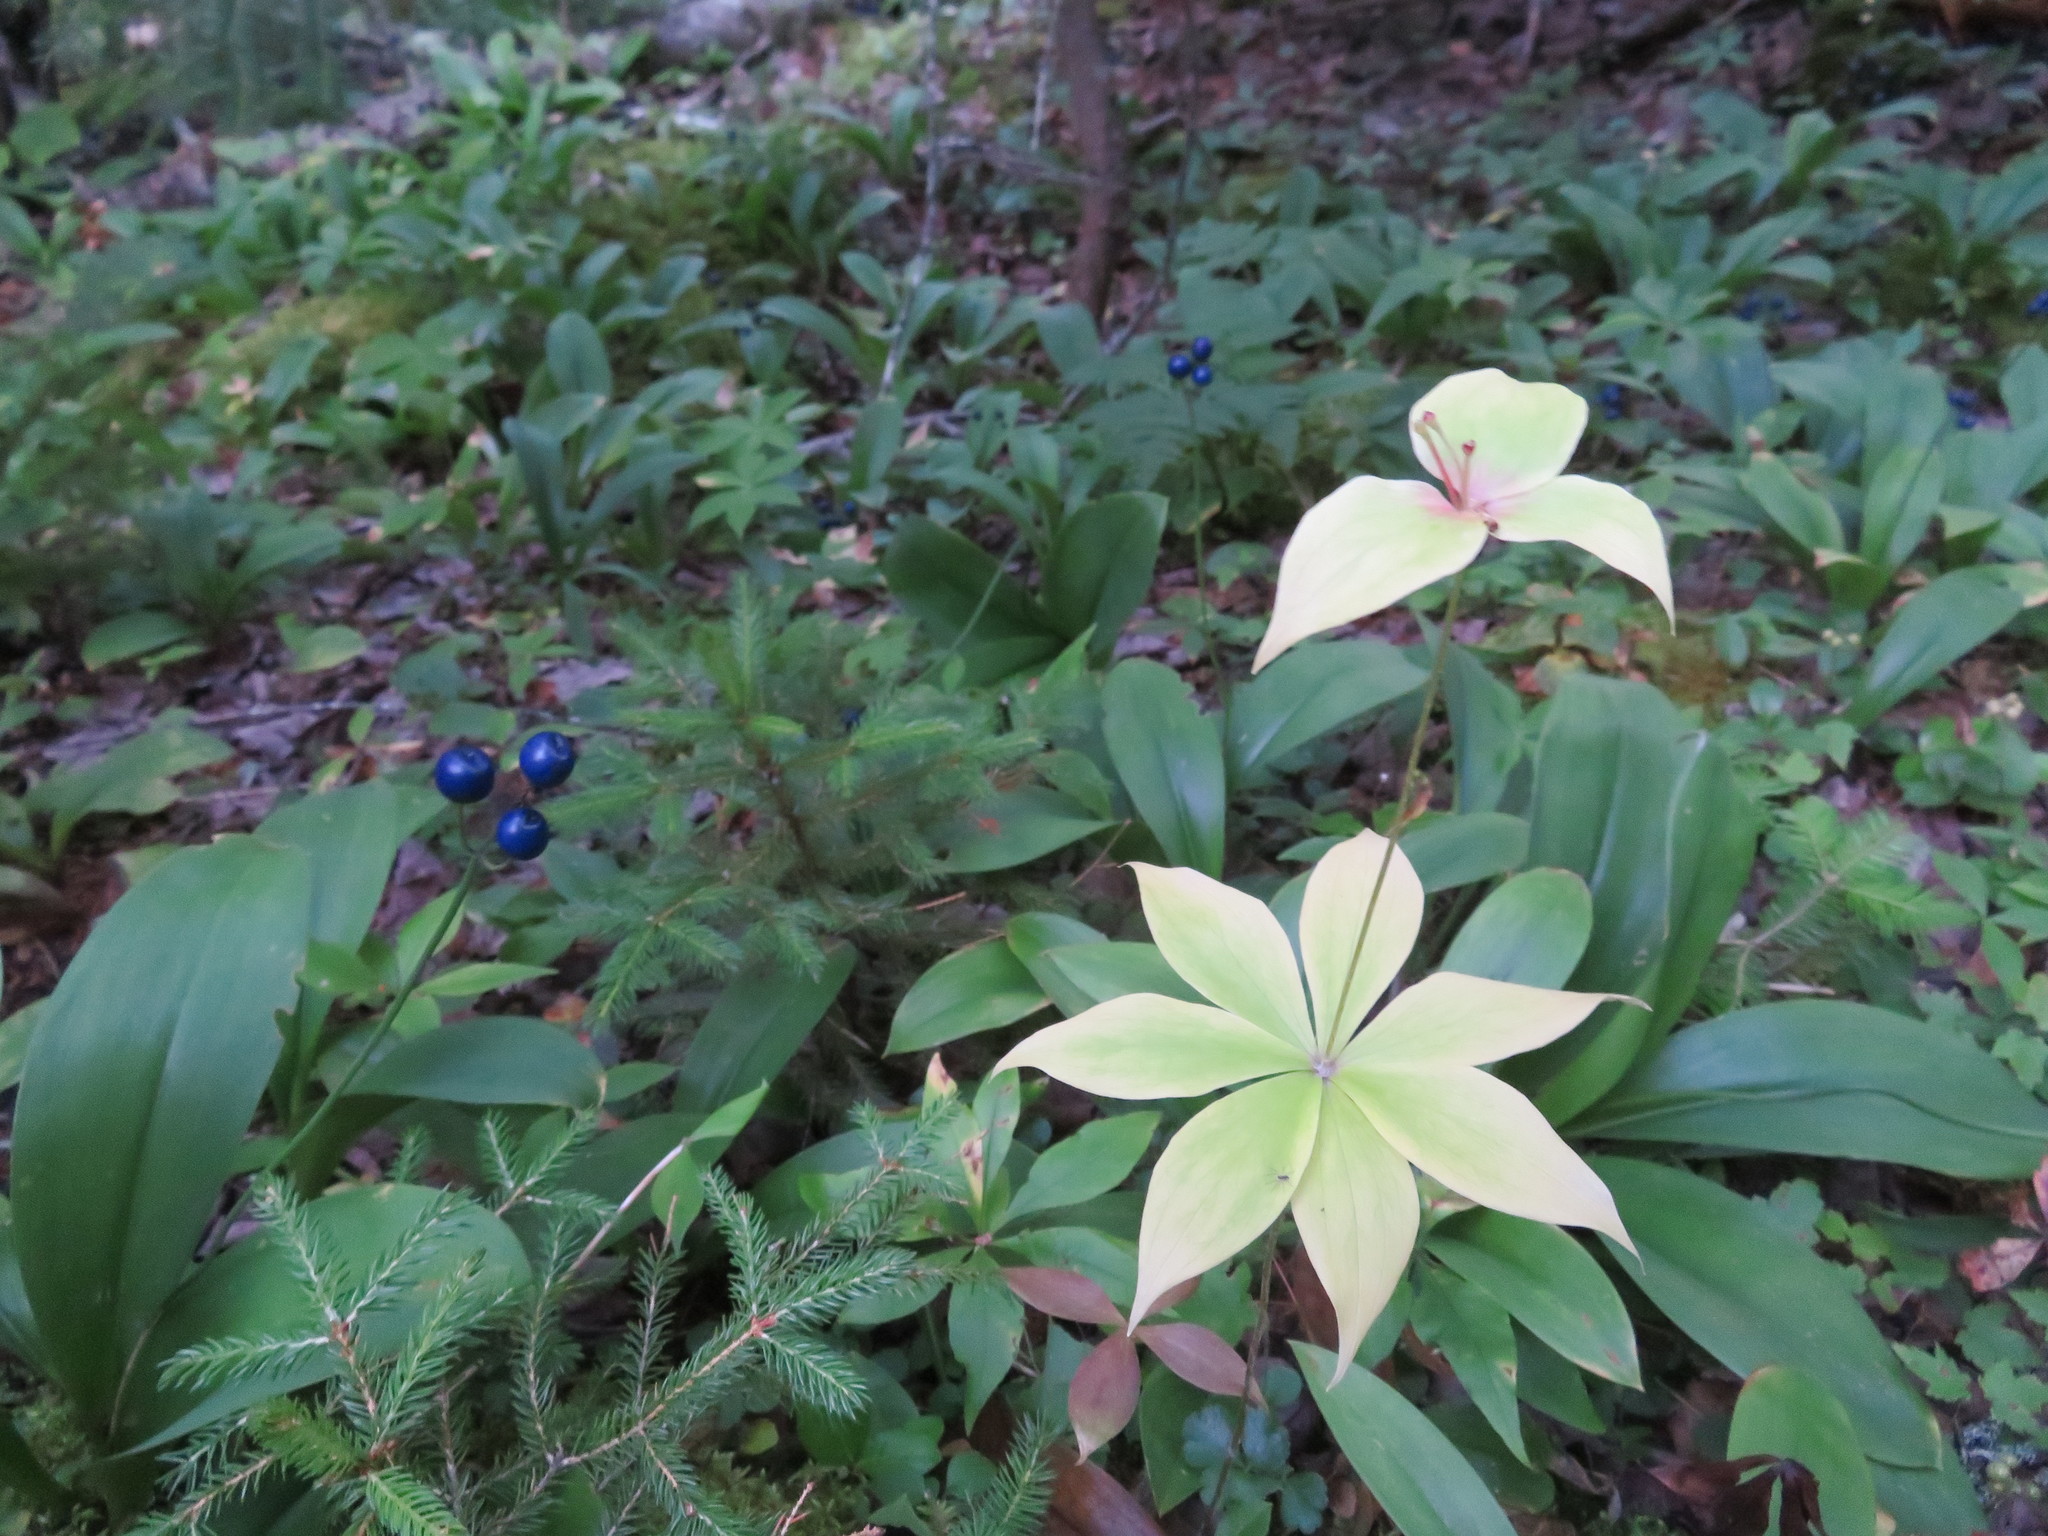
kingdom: Plantae
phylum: Tracheophyta
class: Liliopsida
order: Liliales
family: Liliaceae
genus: Medeola
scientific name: Medeola virginiana
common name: Indian cucumber-root
